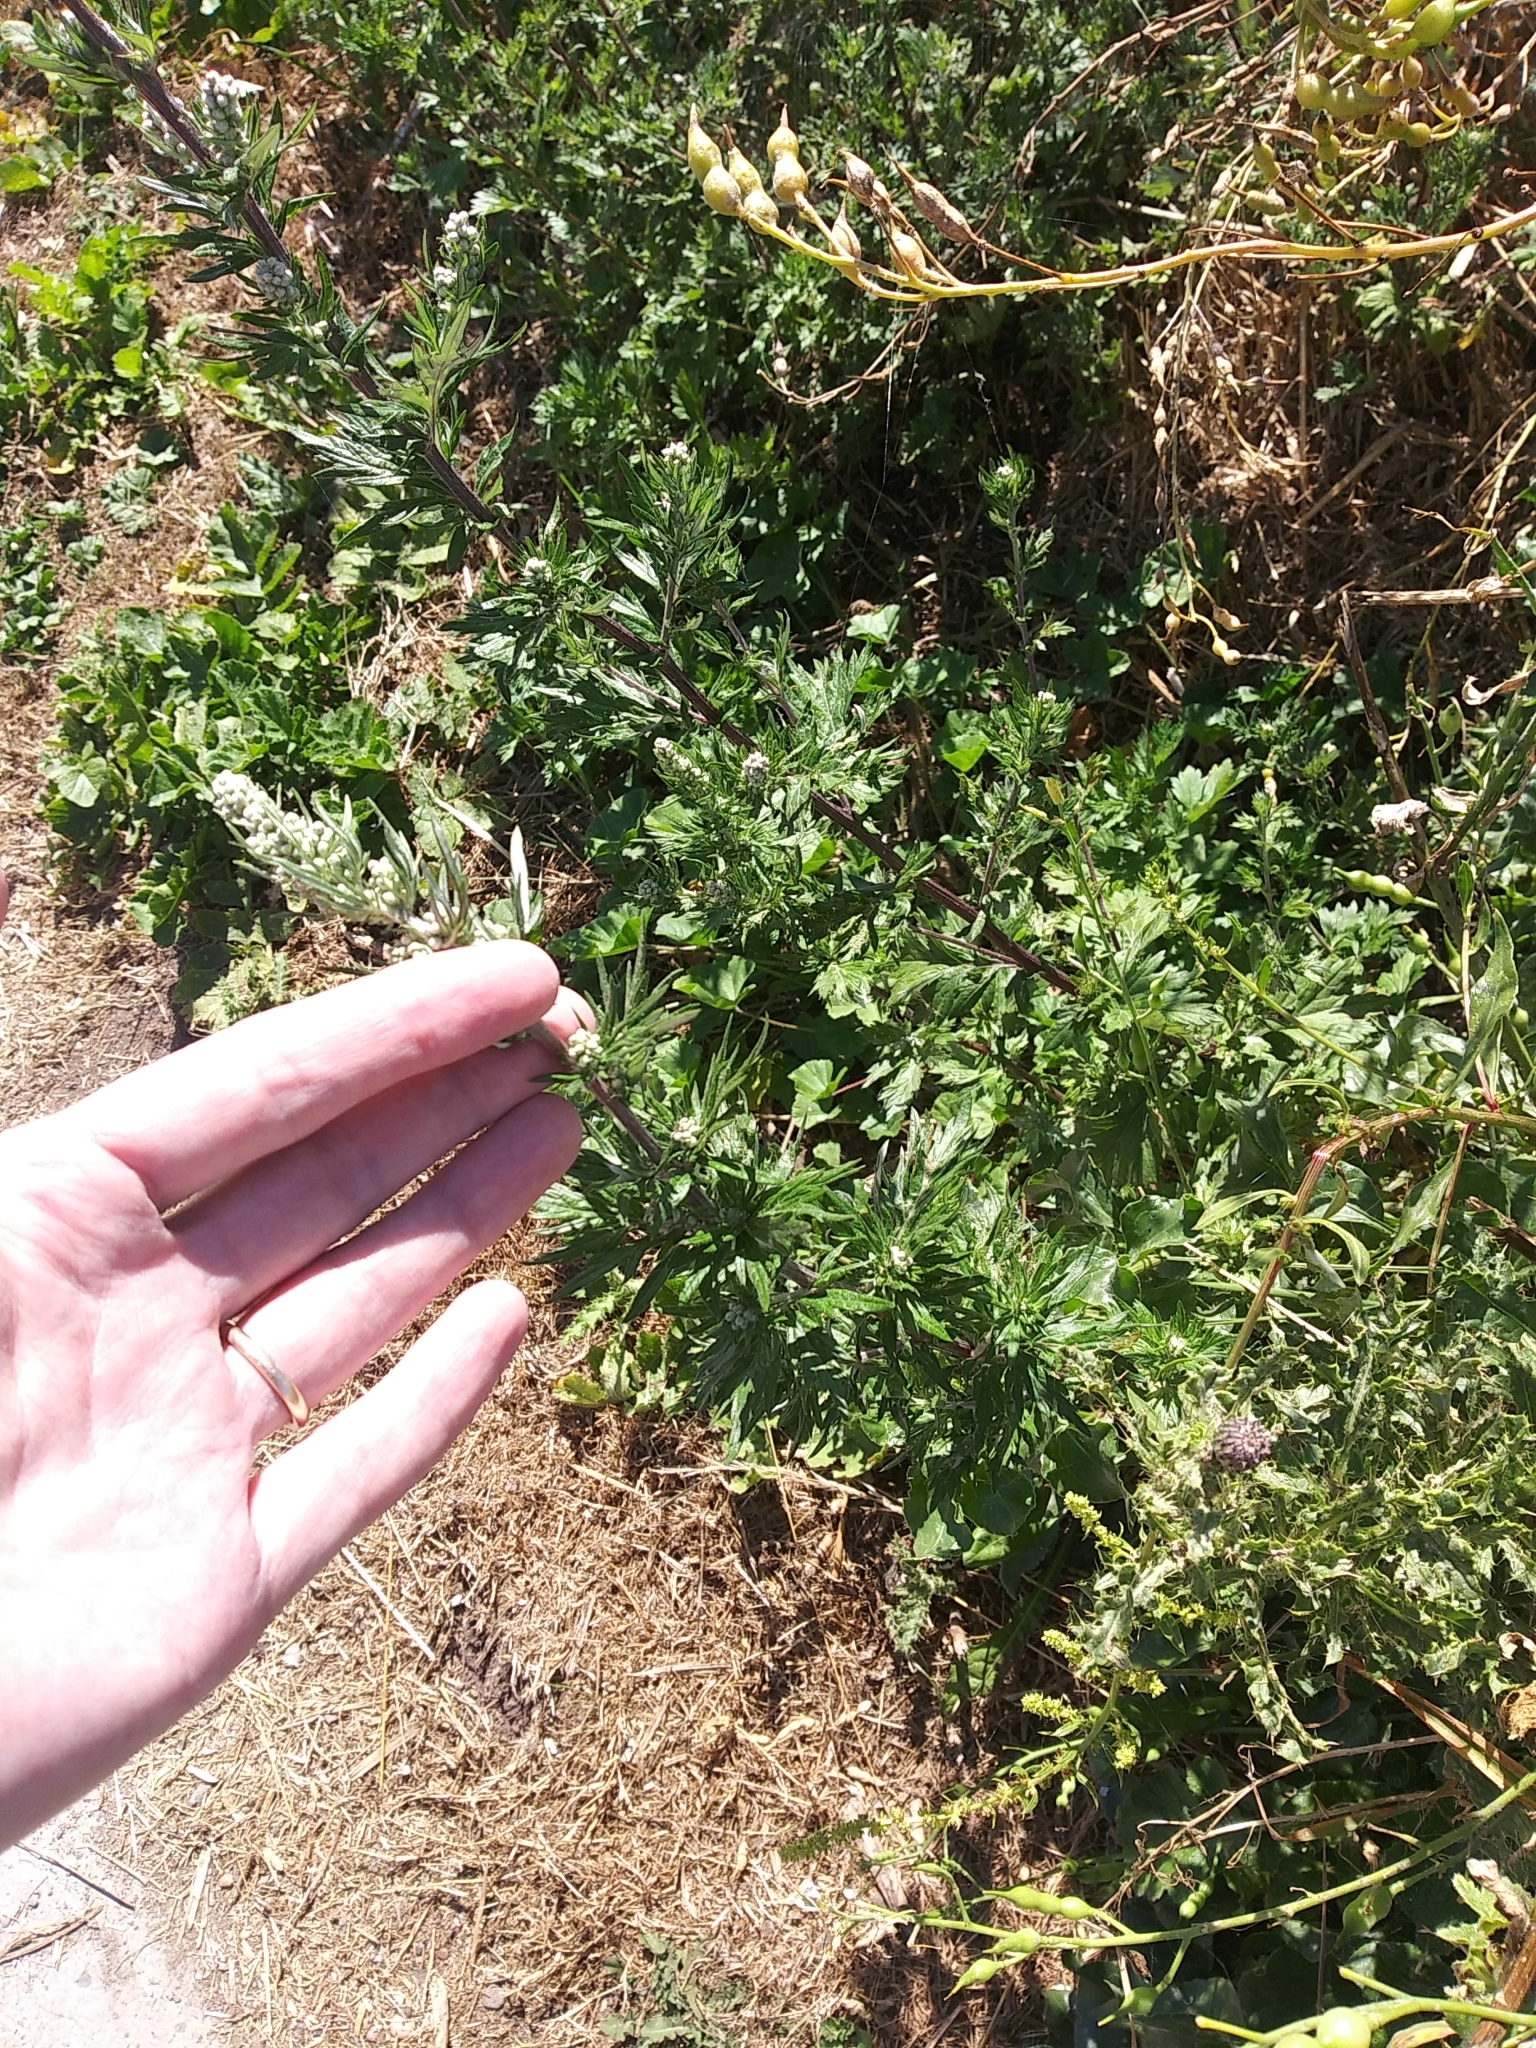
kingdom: Plantae
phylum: Tracheophyta
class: Magnoliopsida
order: Asterales
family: Asteraceae
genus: Artemisia
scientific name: Artemisia vulgaris
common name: Mugwort
